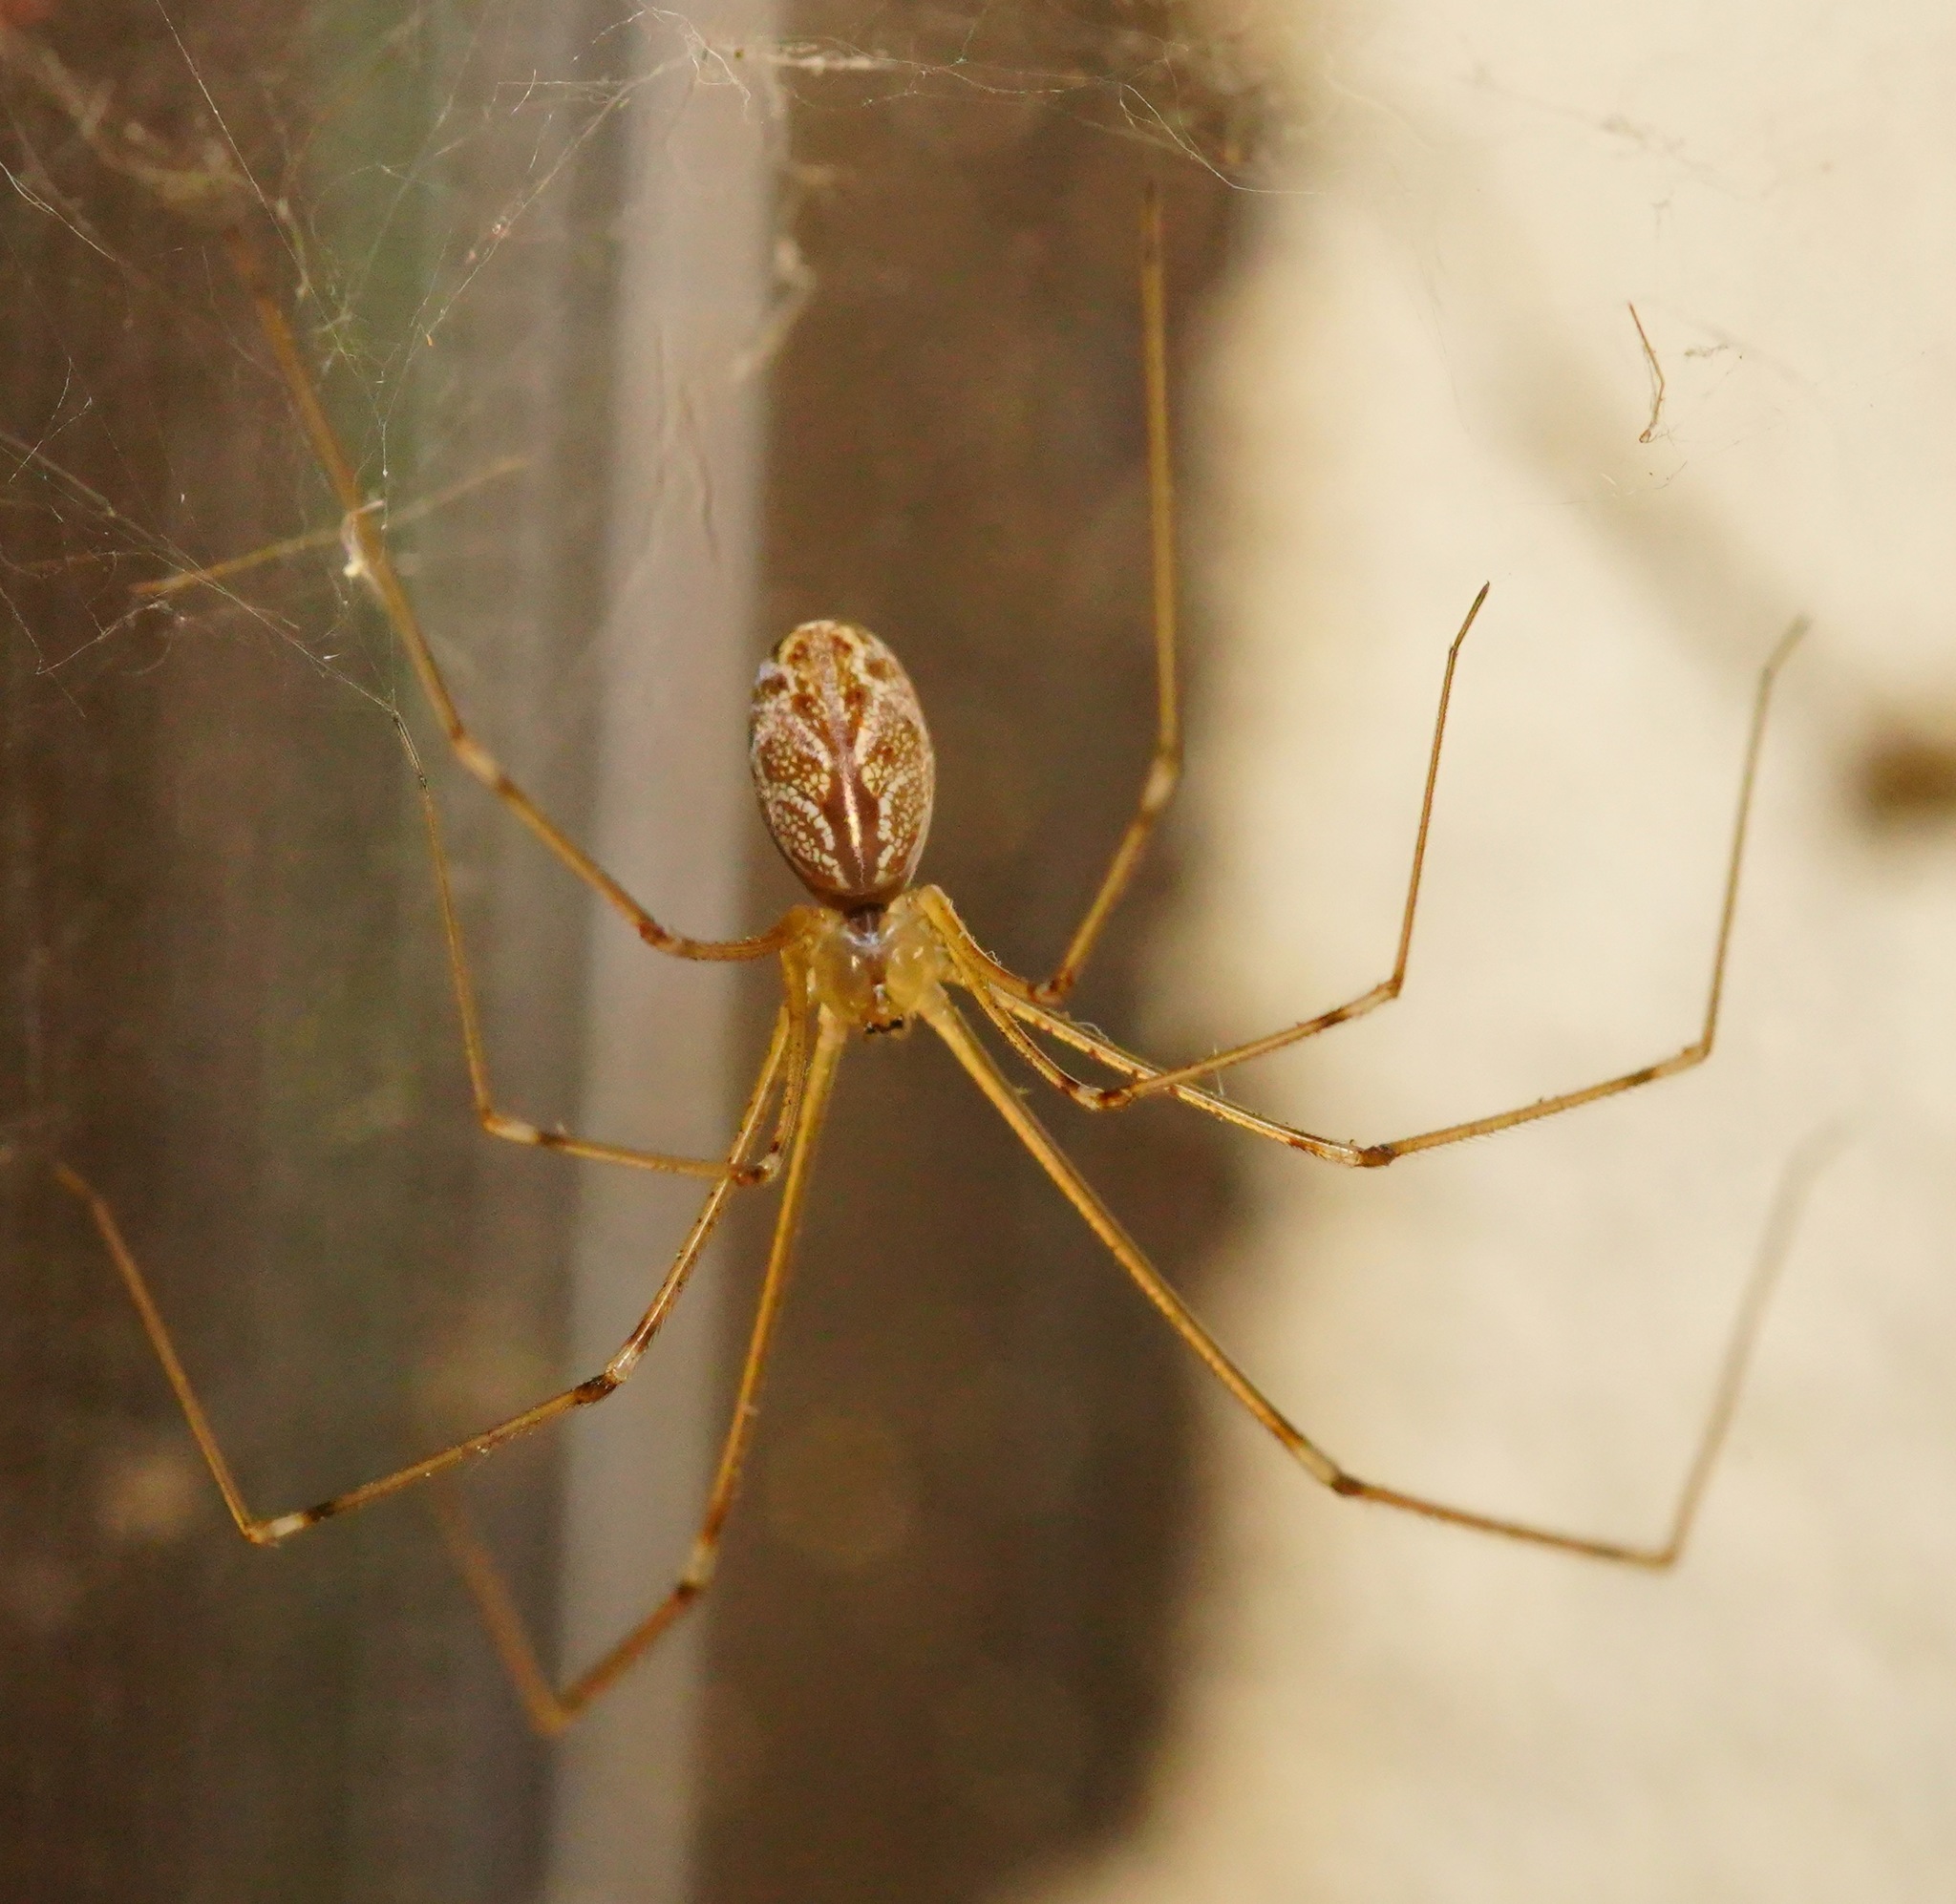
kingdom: Animalia
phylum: Arthropoda
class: Arachnida
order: Araneae
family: Pholcidae
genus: Holocnemus
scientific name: Holocnemus pluchei
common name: Marbled cellar spider
